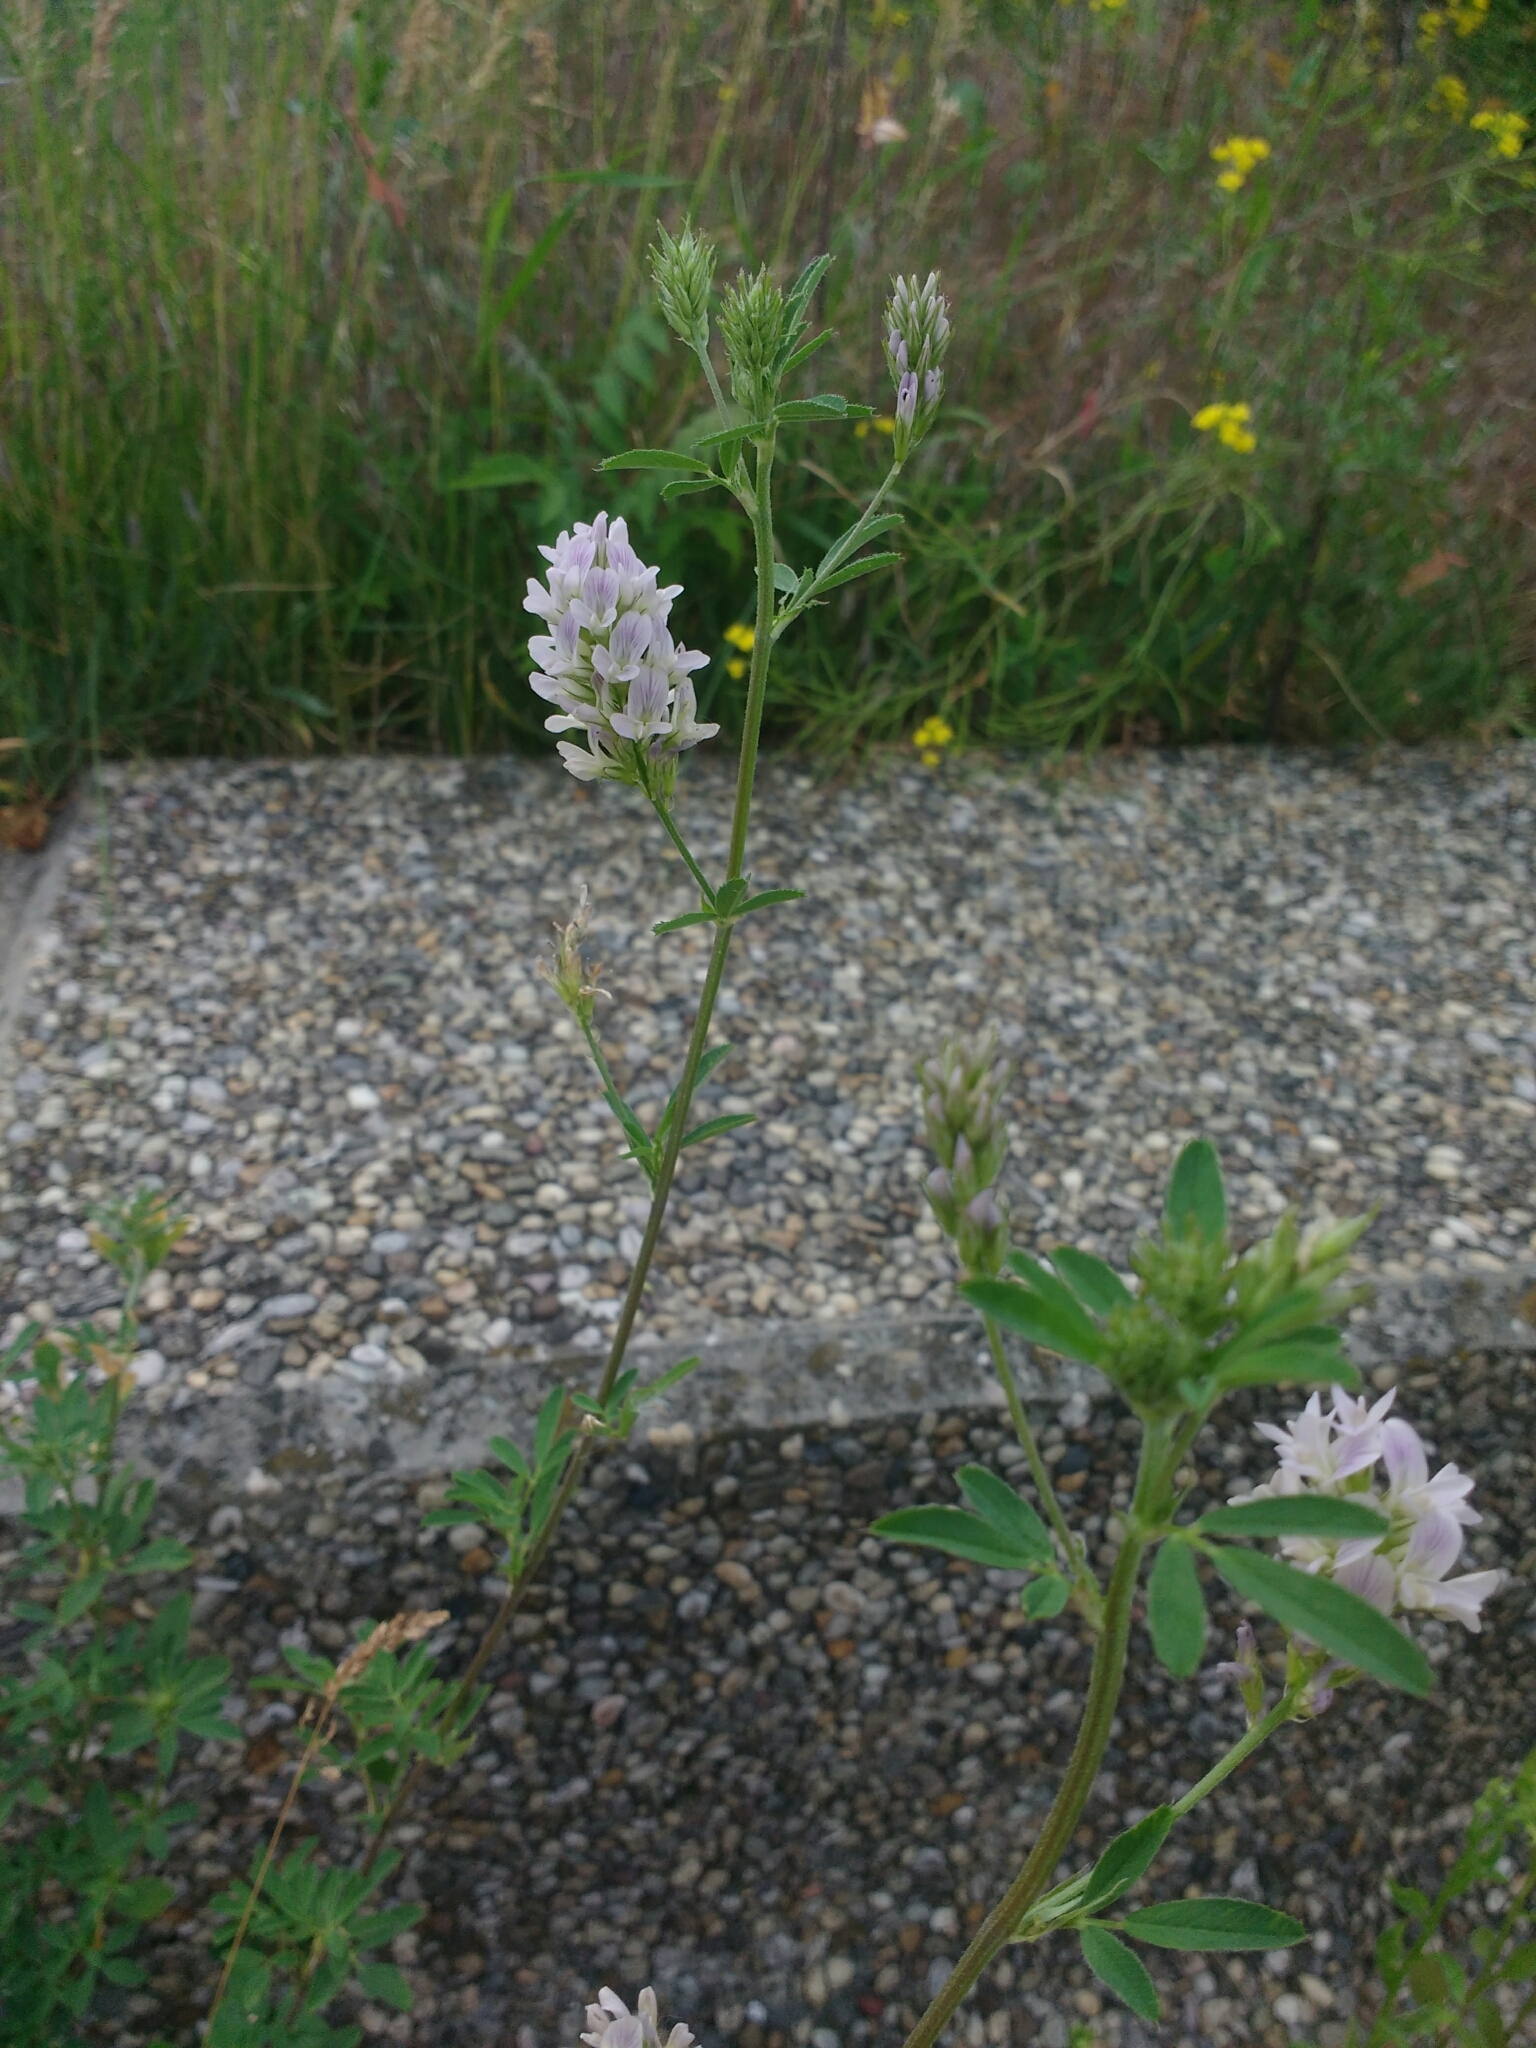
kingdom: Plantae
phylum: Tracheophyta
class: Magnoliopsida
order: Fabales
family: Fabaceae
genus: Medicago
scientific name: Medicago sativa
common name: Alfalfa
